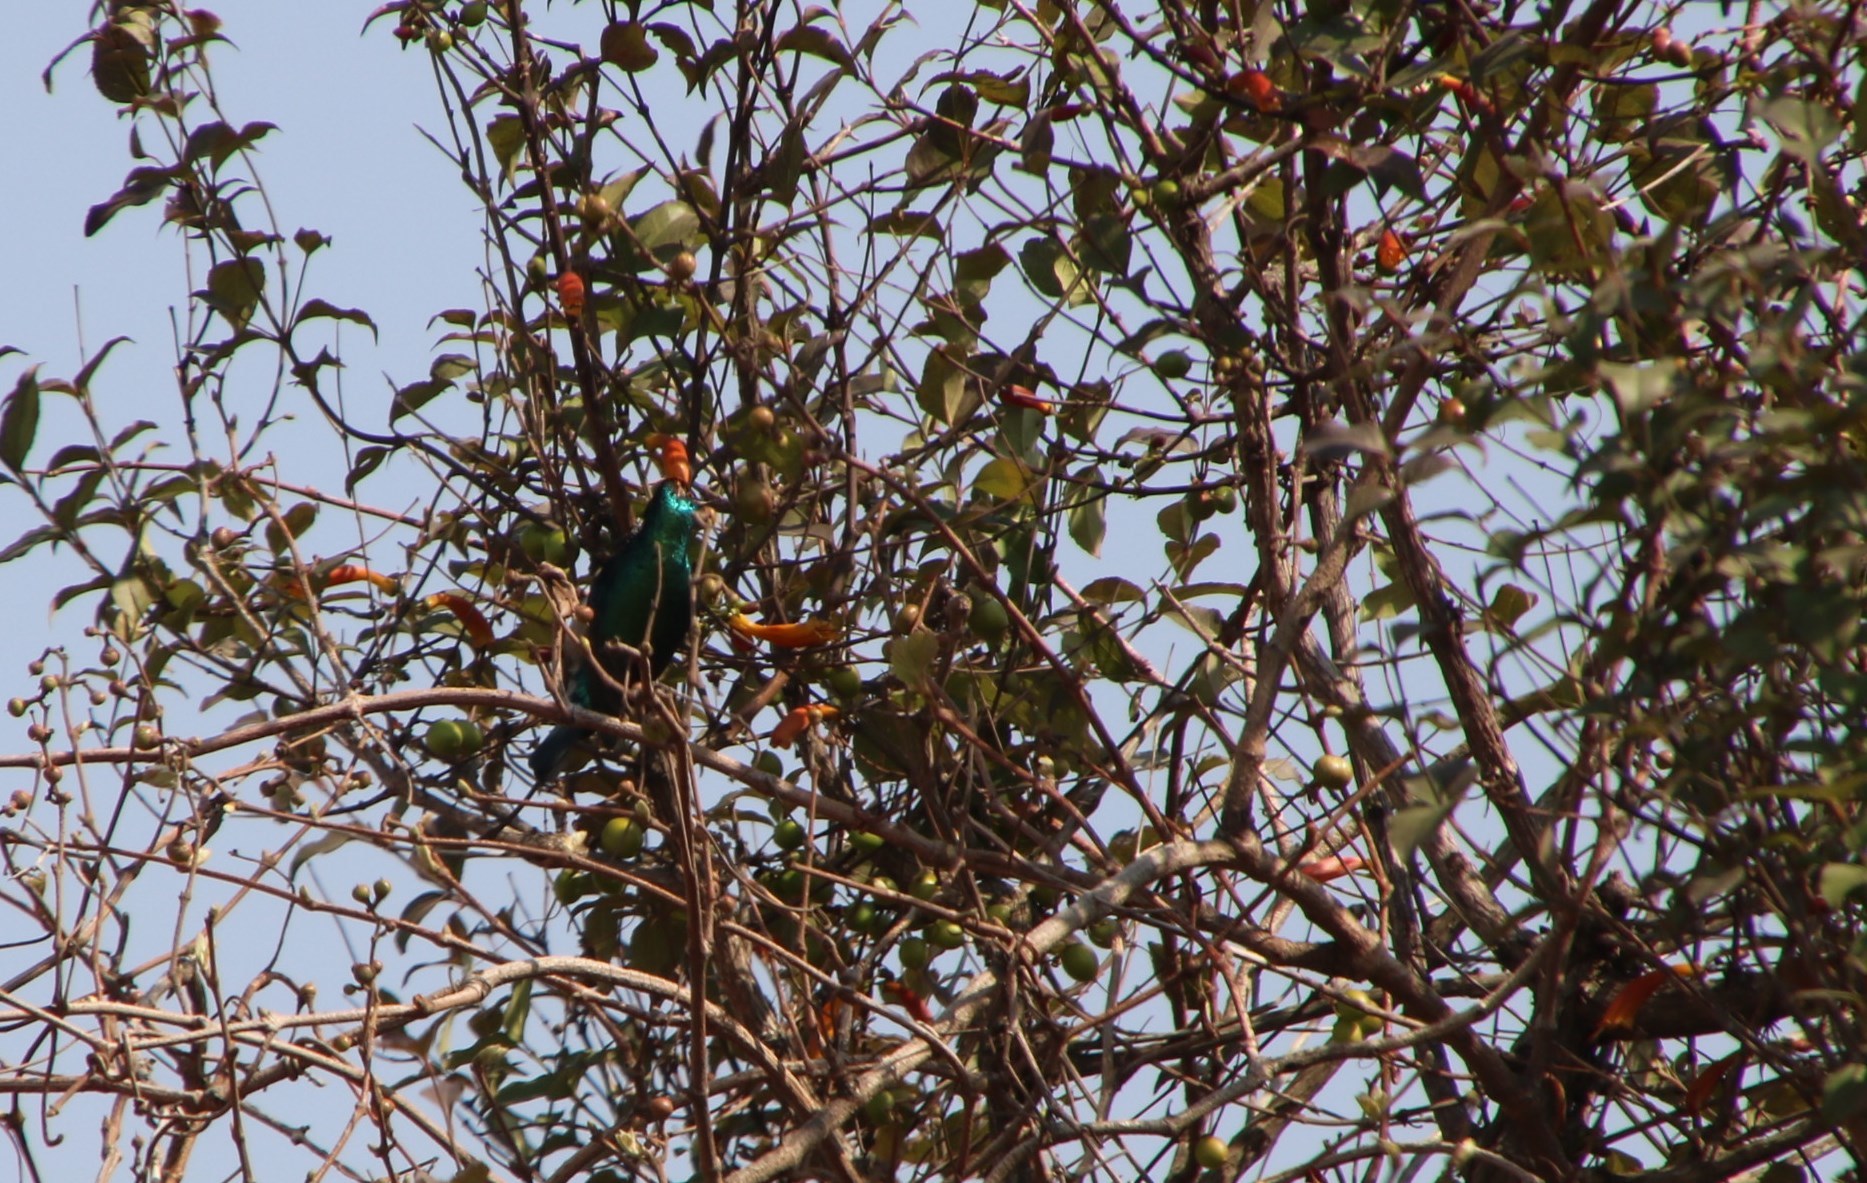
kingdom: Plantae
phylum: Tracheophyta
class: Magnoliopsida
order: Lamiales
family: Stilbaceae
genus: Halleria
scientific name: Halleria lucida
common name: Tree fuschia
